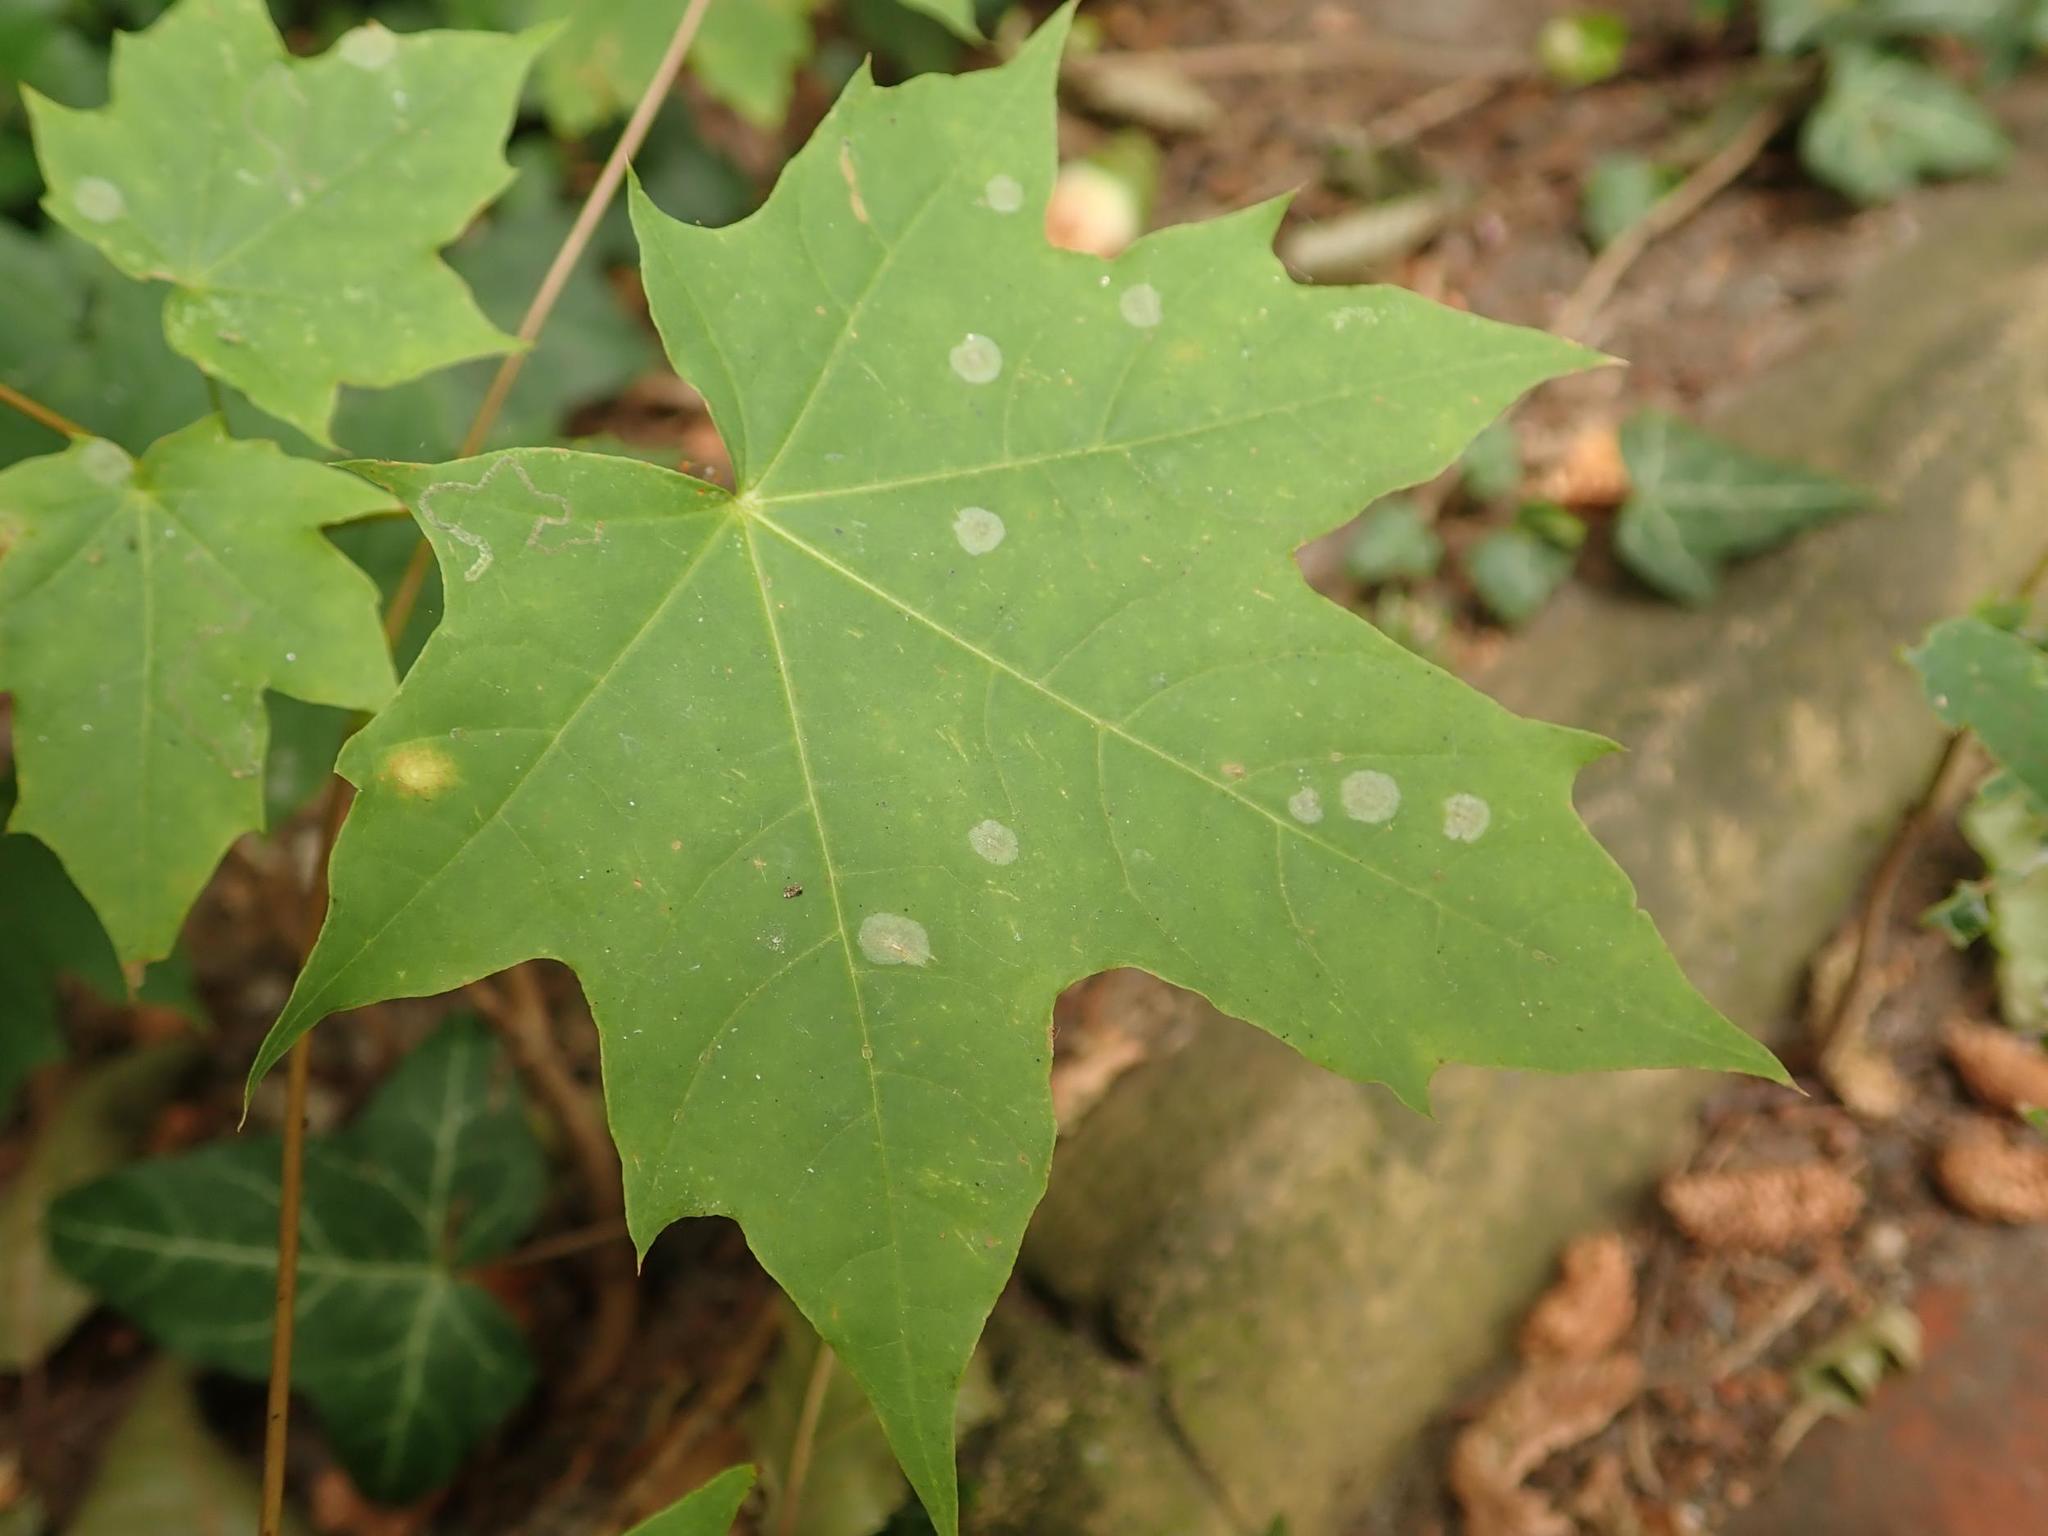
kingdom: Plantae
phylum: Tracheophyta
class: Magnoliopsida
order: Sapindales
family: Sapindaceae
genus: Acer
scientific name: Acer platanoides
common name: Norway maple
